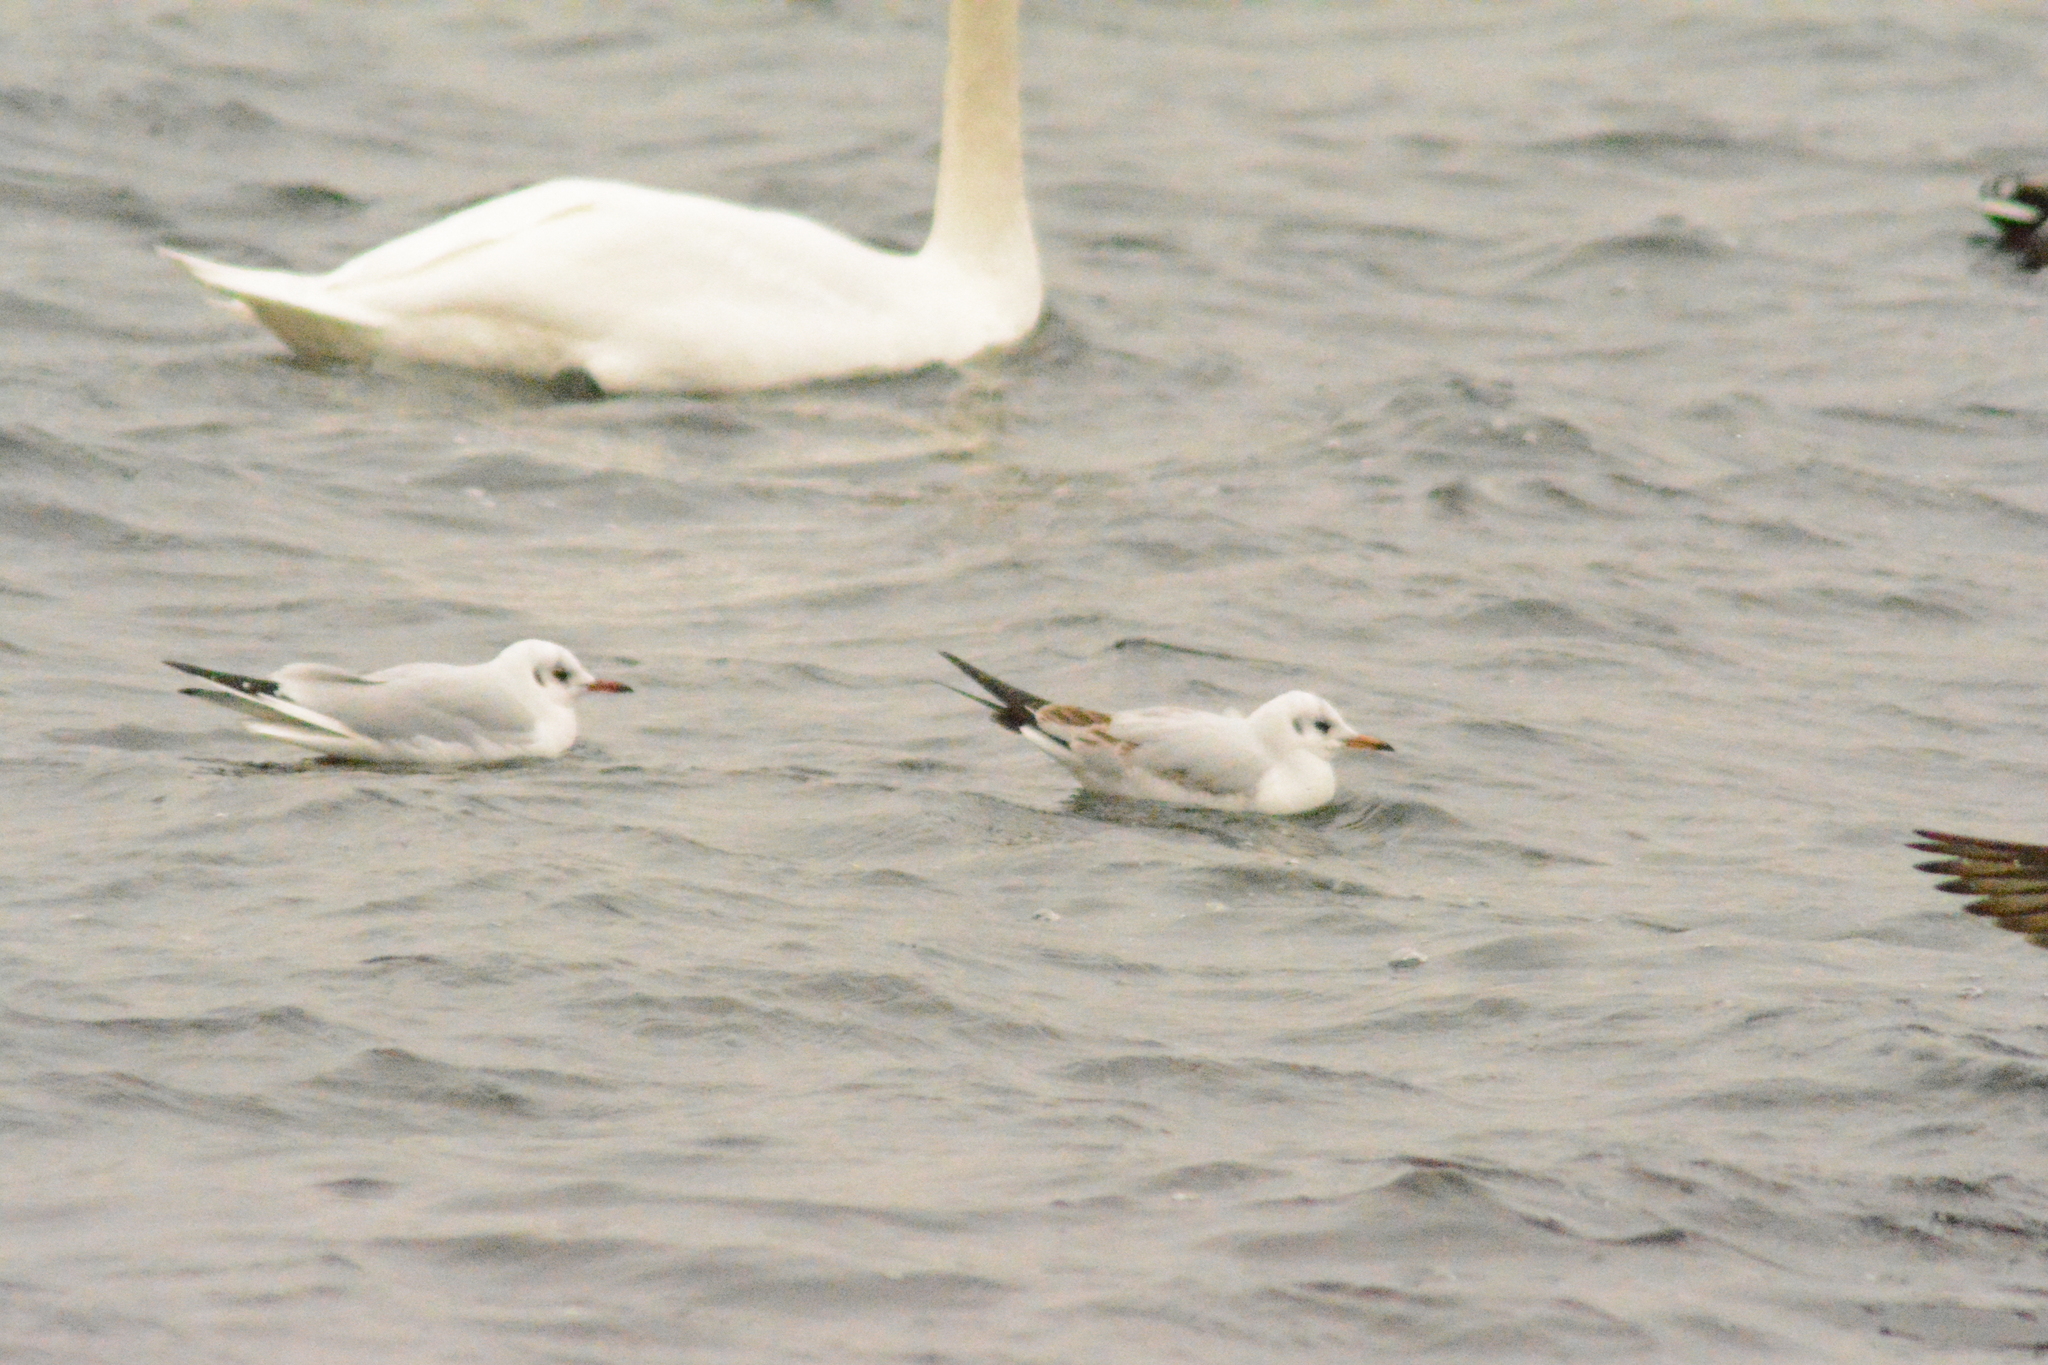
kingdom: Animalia
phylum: Chordata
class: Aves
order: Charadriiformes
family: Laridae
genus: Chroicocephalus
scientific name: Chroicocephalus ridibundus
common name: Black-headed gull
